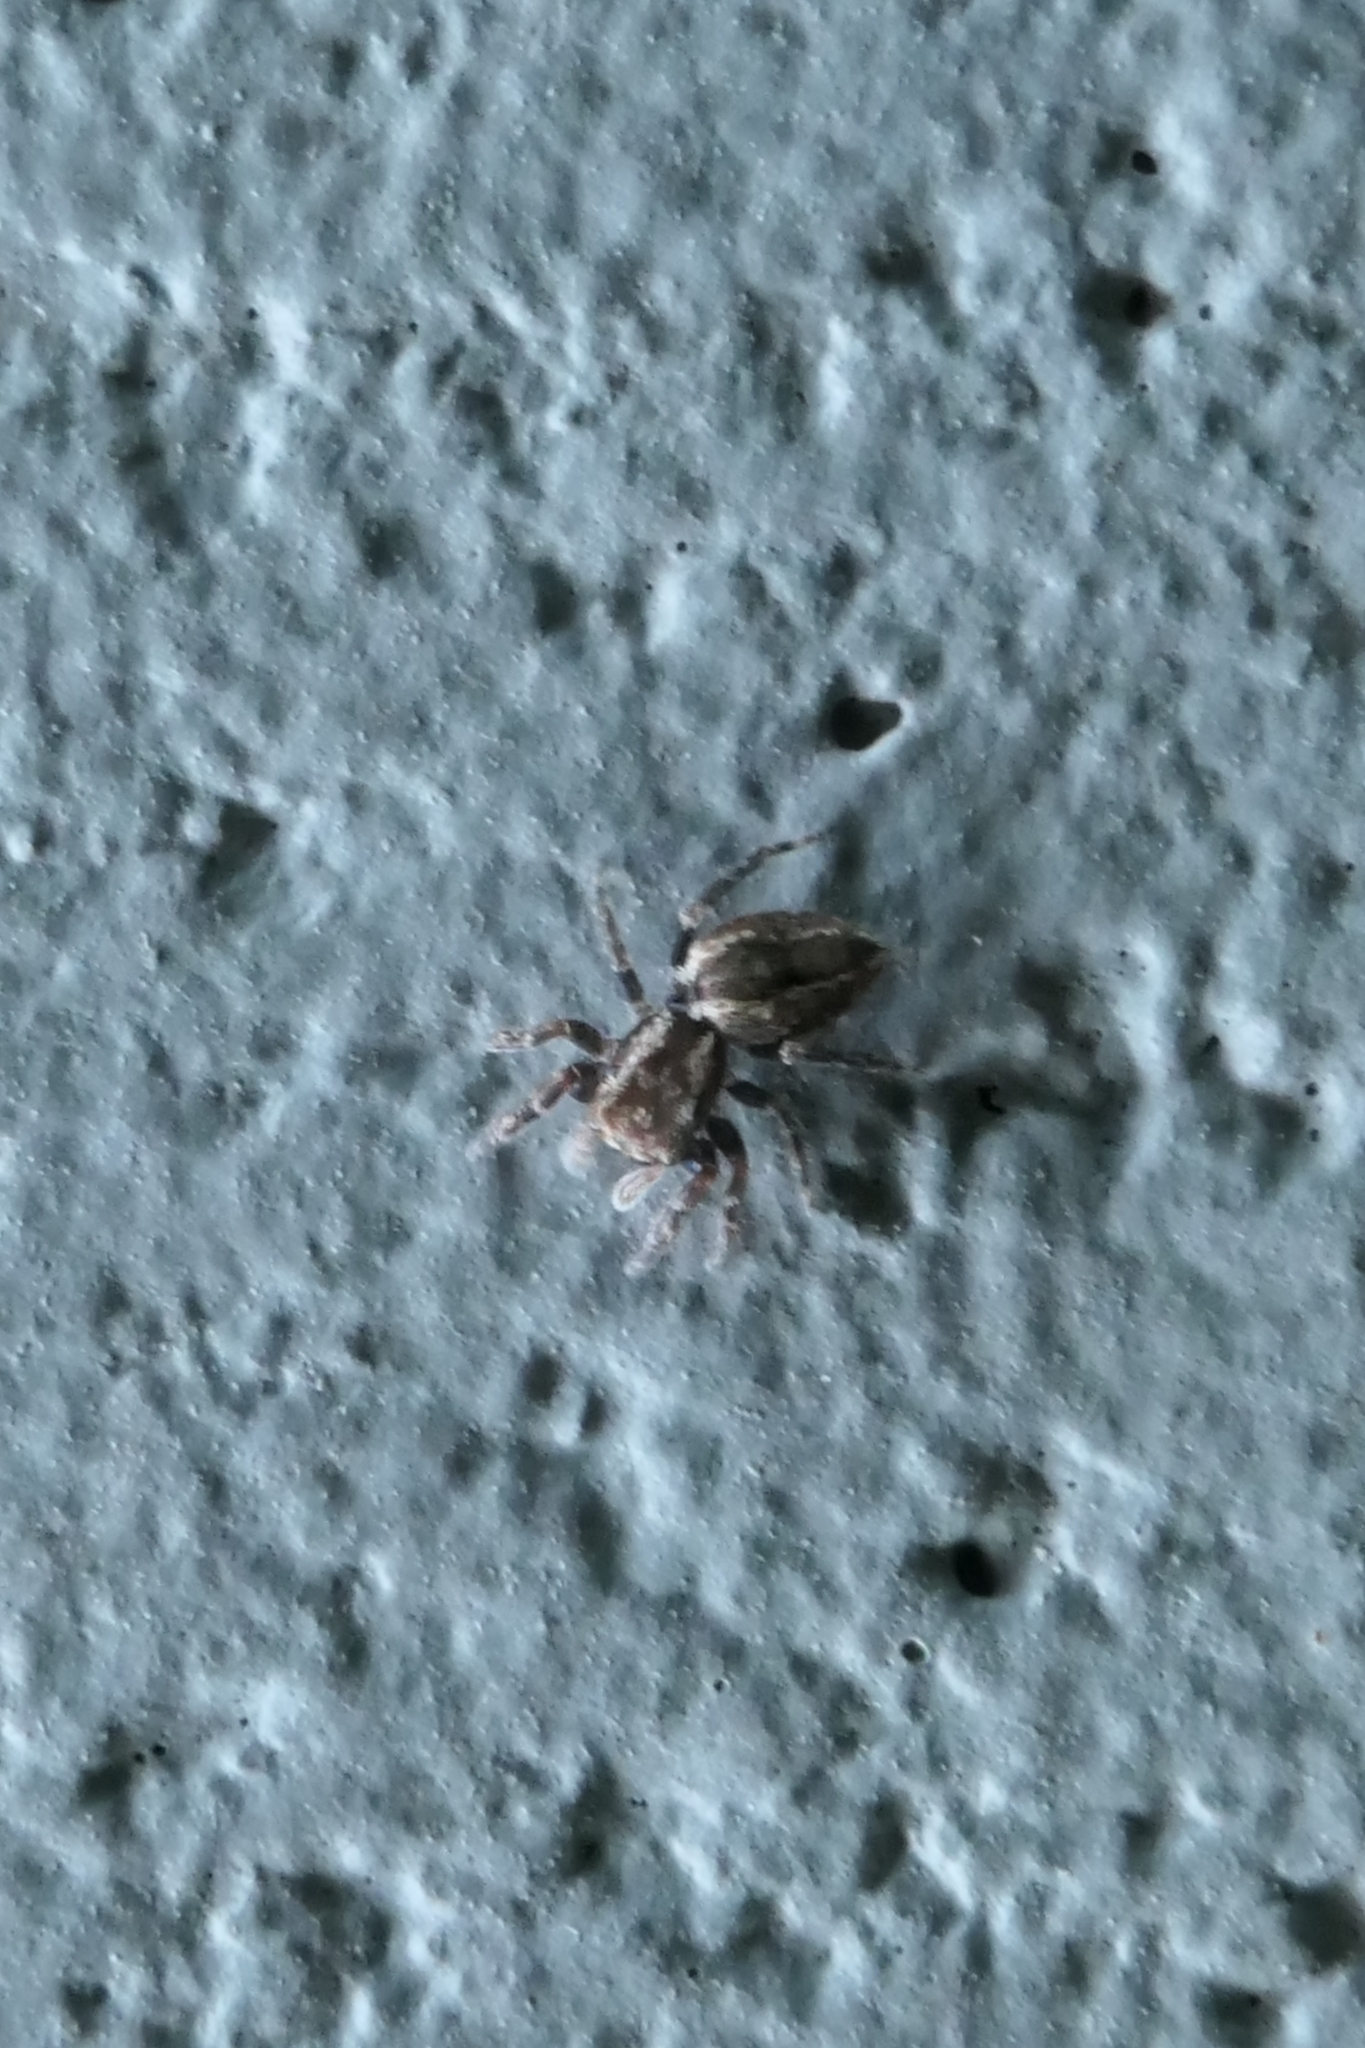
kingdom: Animalia
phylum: Arthropoda
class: Arachnida
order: Araneae
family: Salticidae
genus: Trite
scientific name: Trite auricoma
